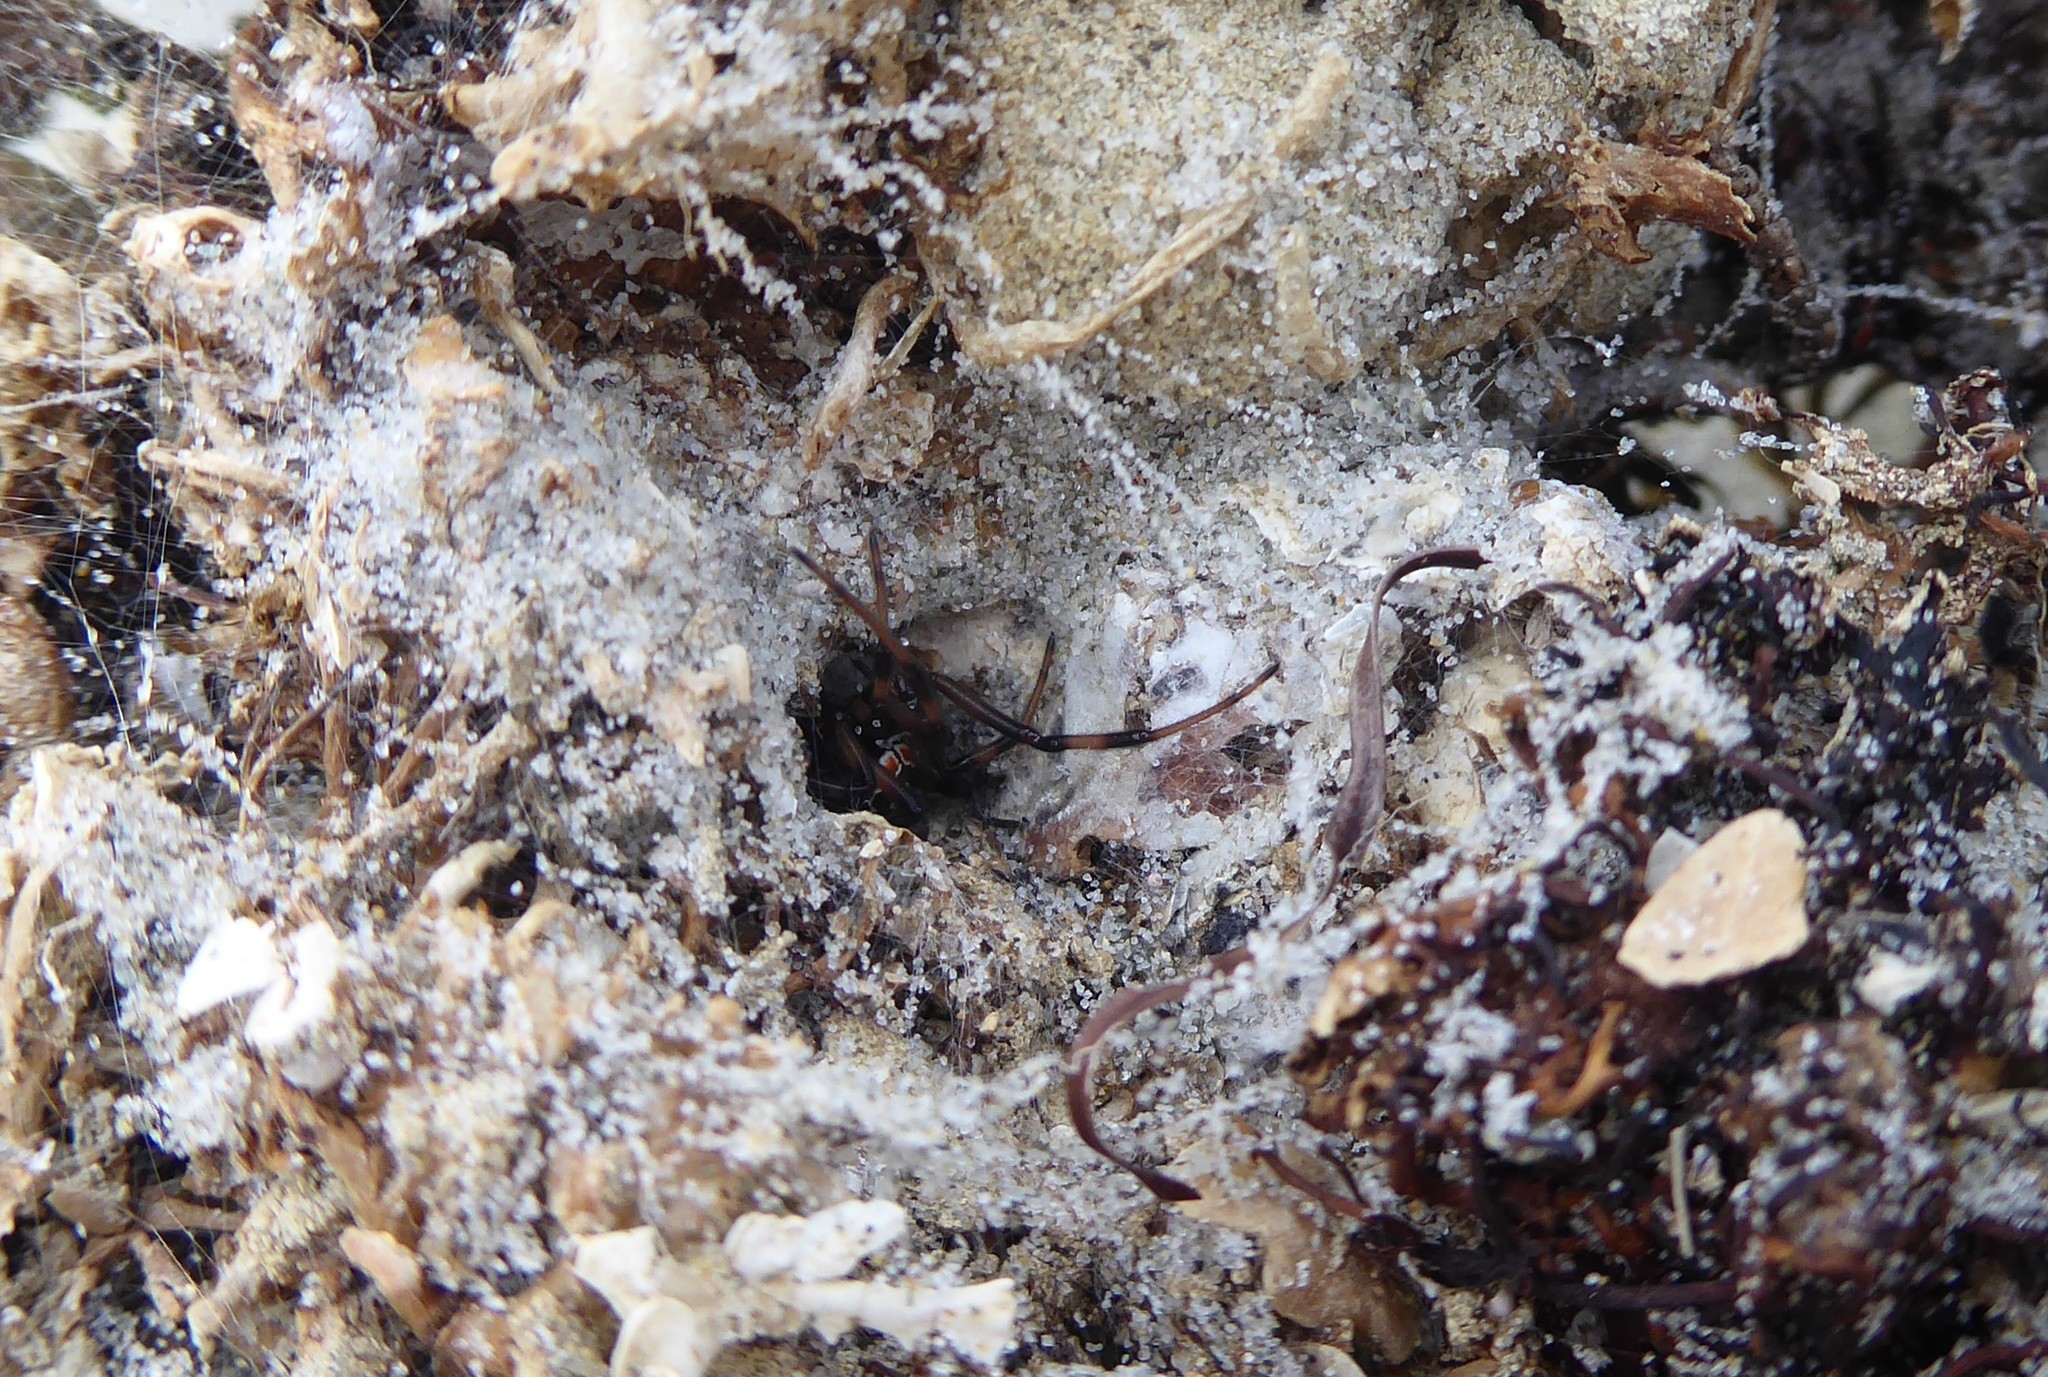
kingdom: Animalia
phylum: Arthropoda
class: Arachnida
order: Araneae
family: Theridiidae
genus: Latrodectus
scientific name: Latrodectus katipo
